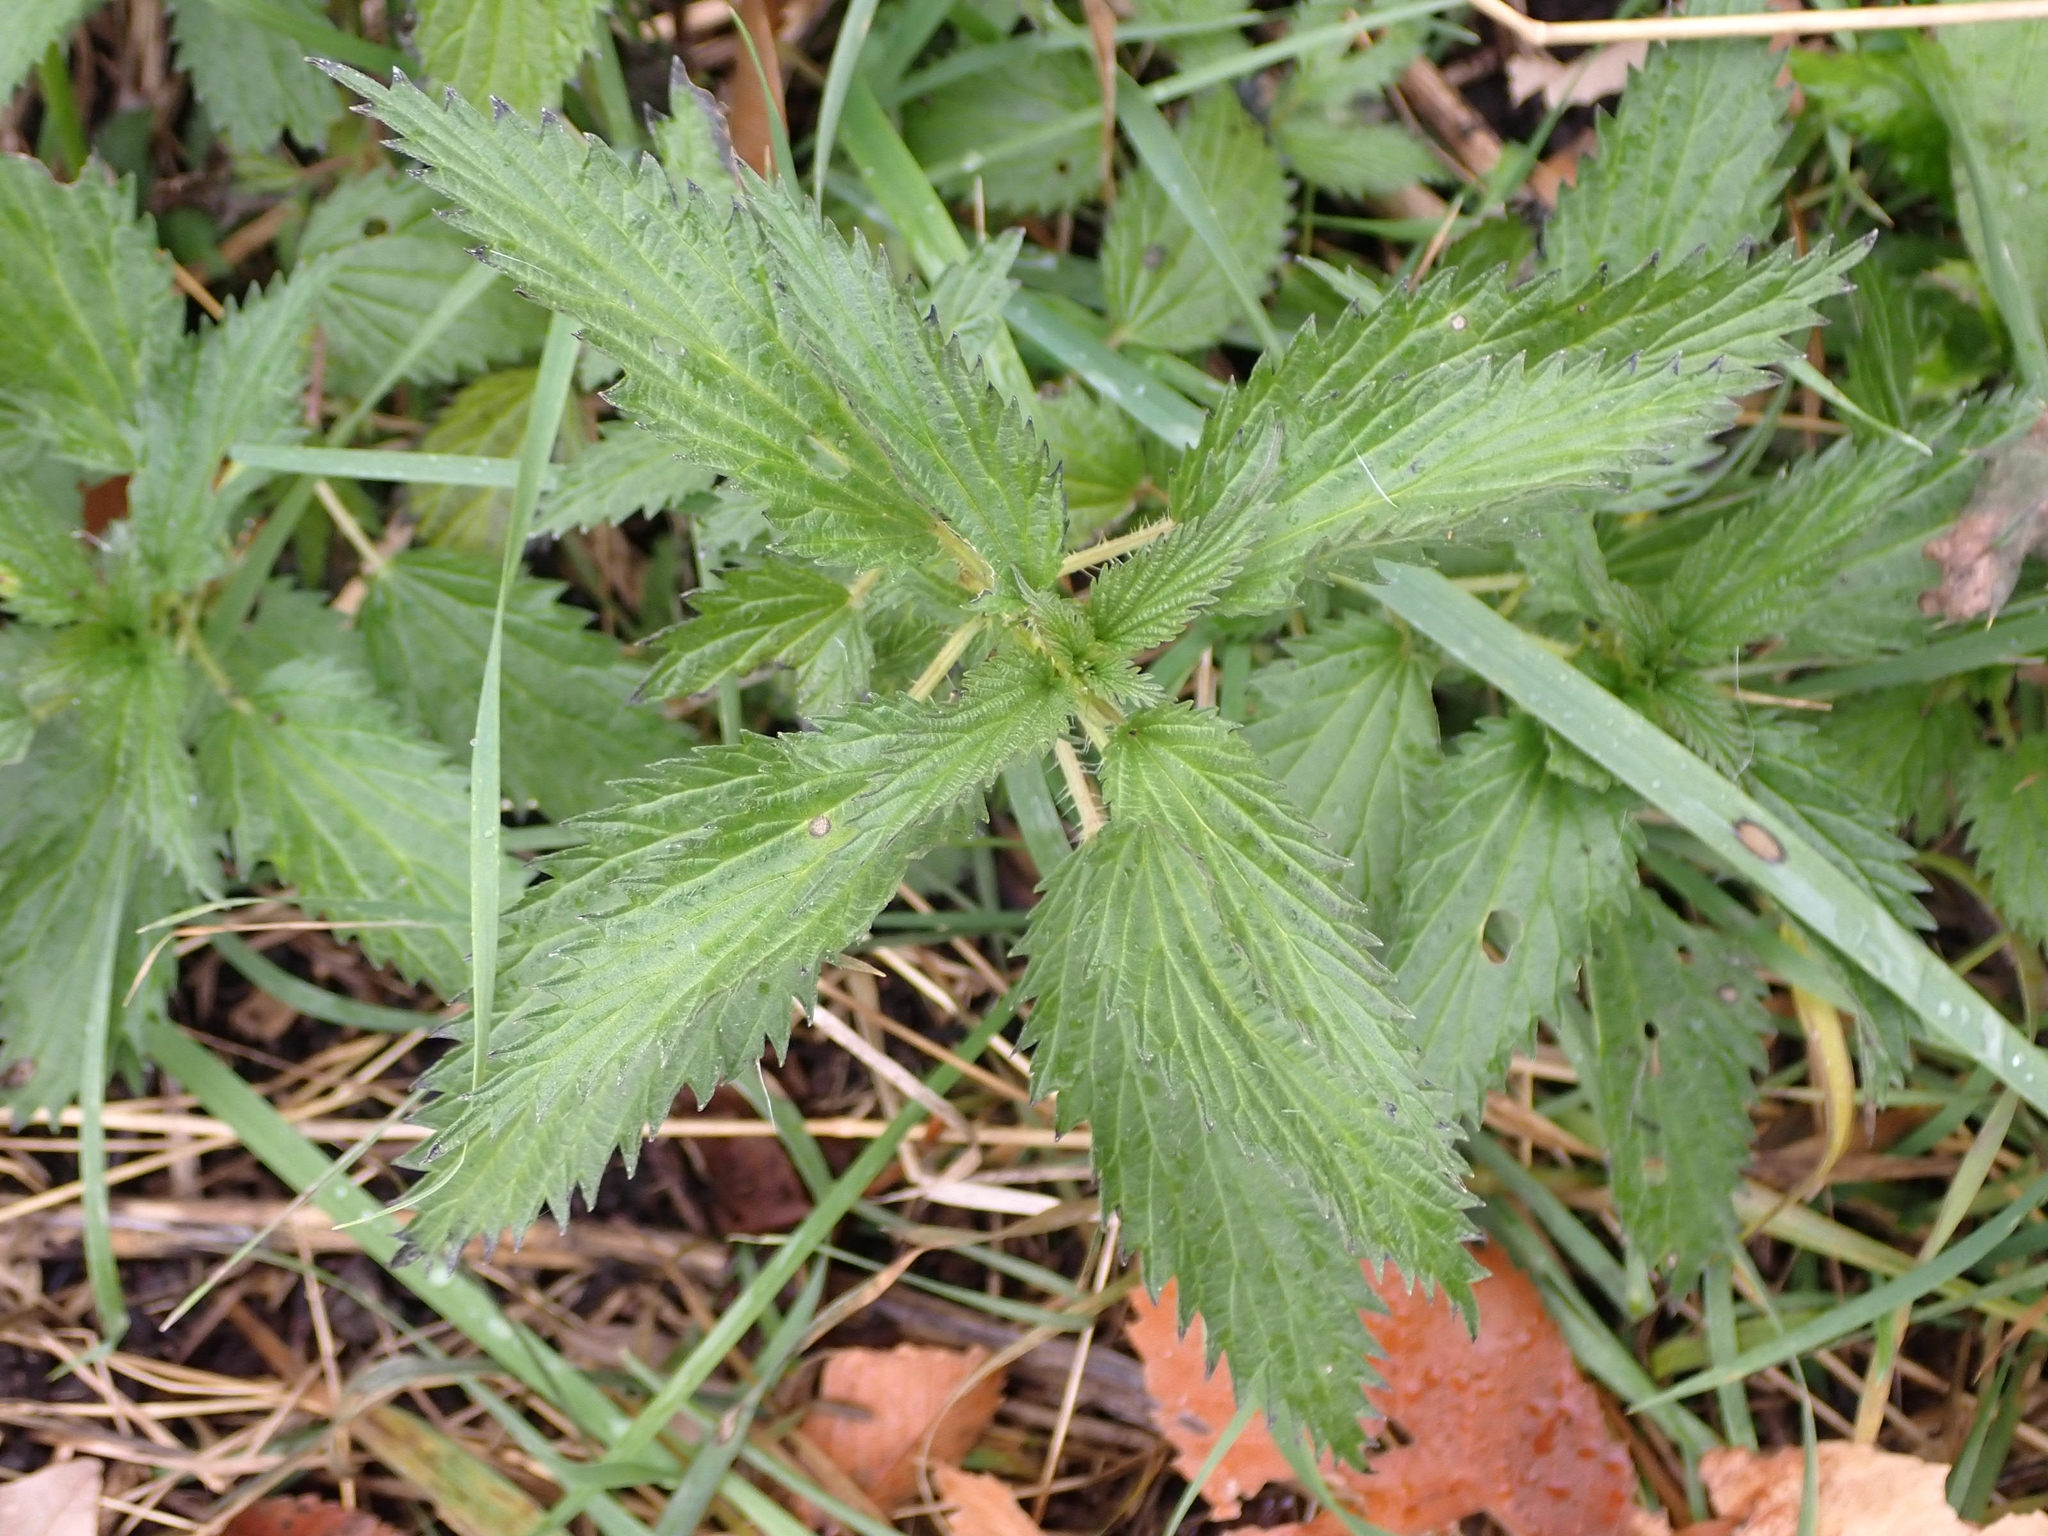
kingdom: Plantae
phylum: Tracheophyta
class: Magnoliopsida
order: Rosales
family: Urticaceae
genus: Urtica
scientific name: Urtica gracilis
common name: Slender stinging nettle
